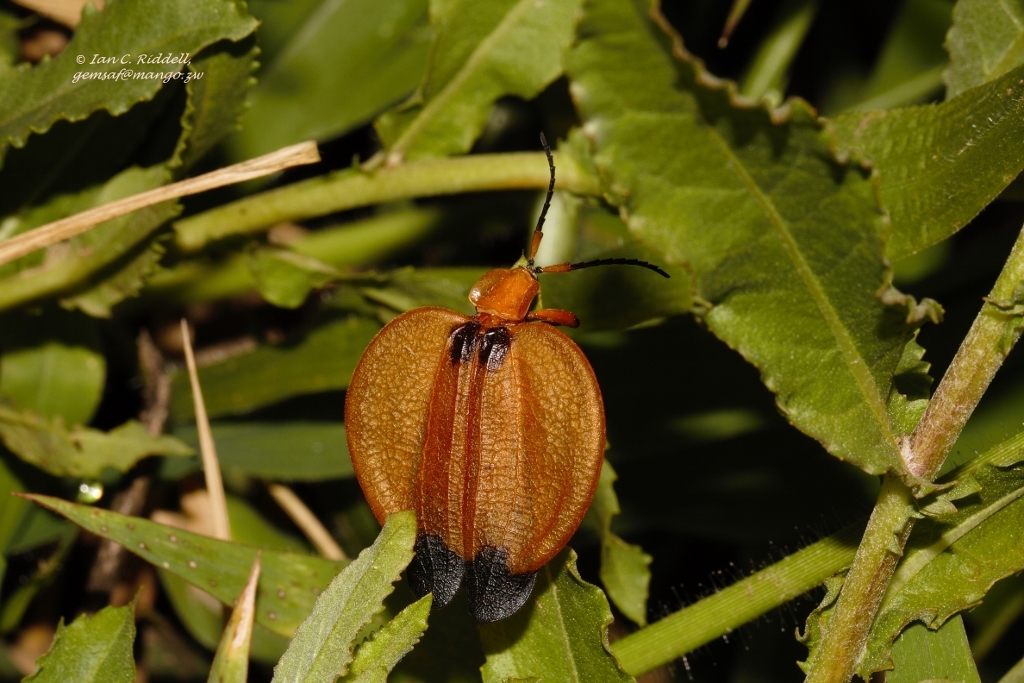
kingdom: Animalia
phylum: Arthropoda
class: Insecta
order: Coleoptera
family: Lycidae
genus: Lycus
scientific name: Lycus
